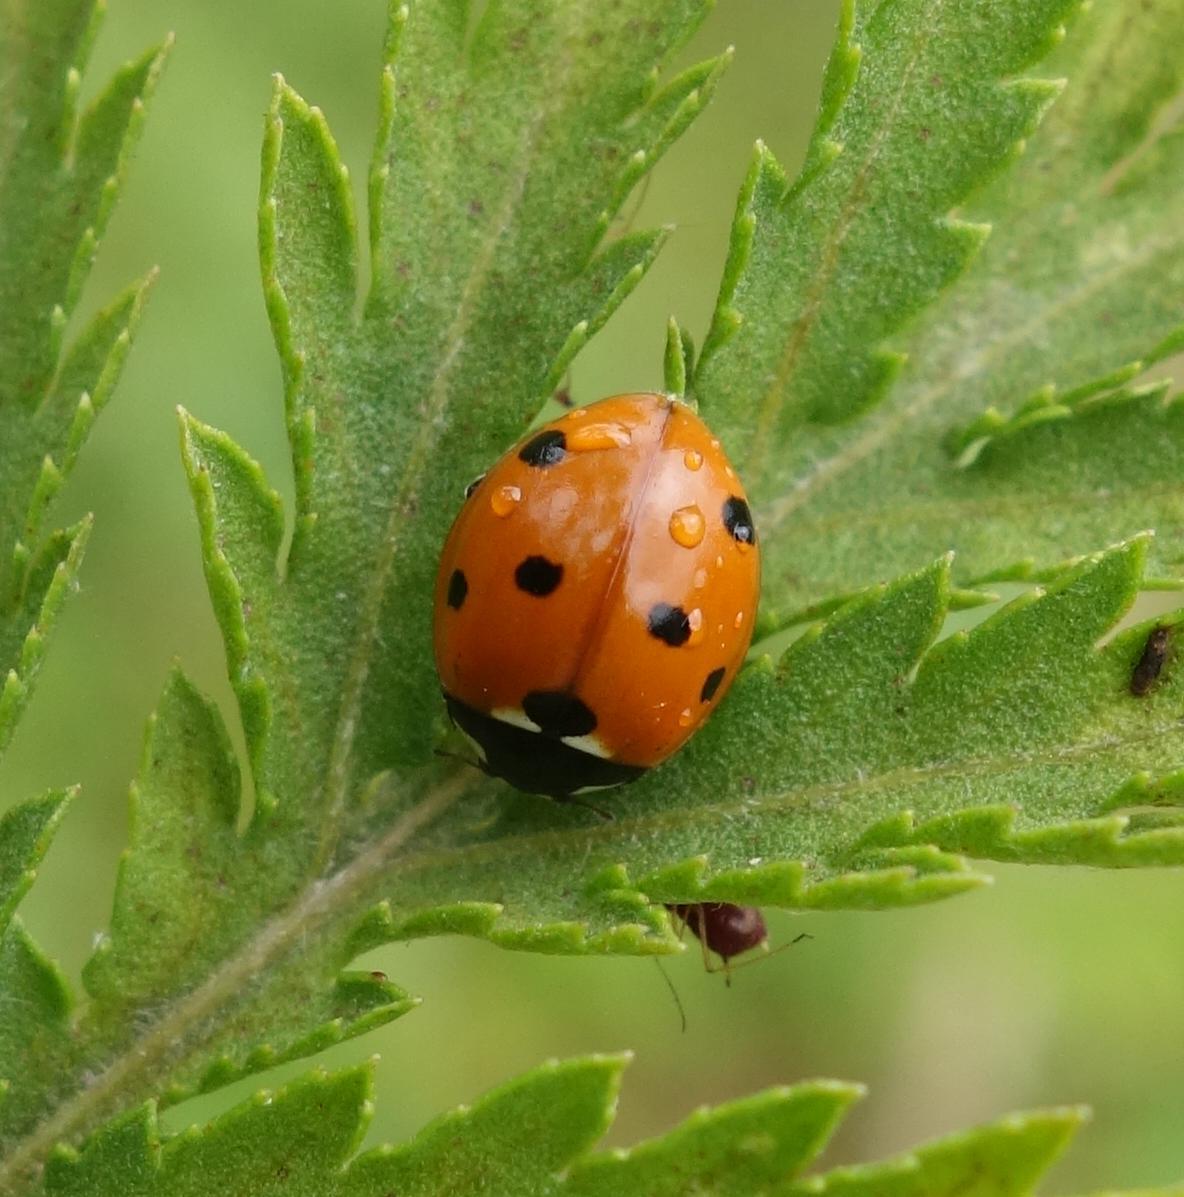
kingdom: Animalia
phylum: Arthropoda
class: Insecta
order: Coleoptera
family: Coccinellidae
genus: Coccinella
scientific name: Coccinella septempunctata
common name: Sevenspotted lady beetle
